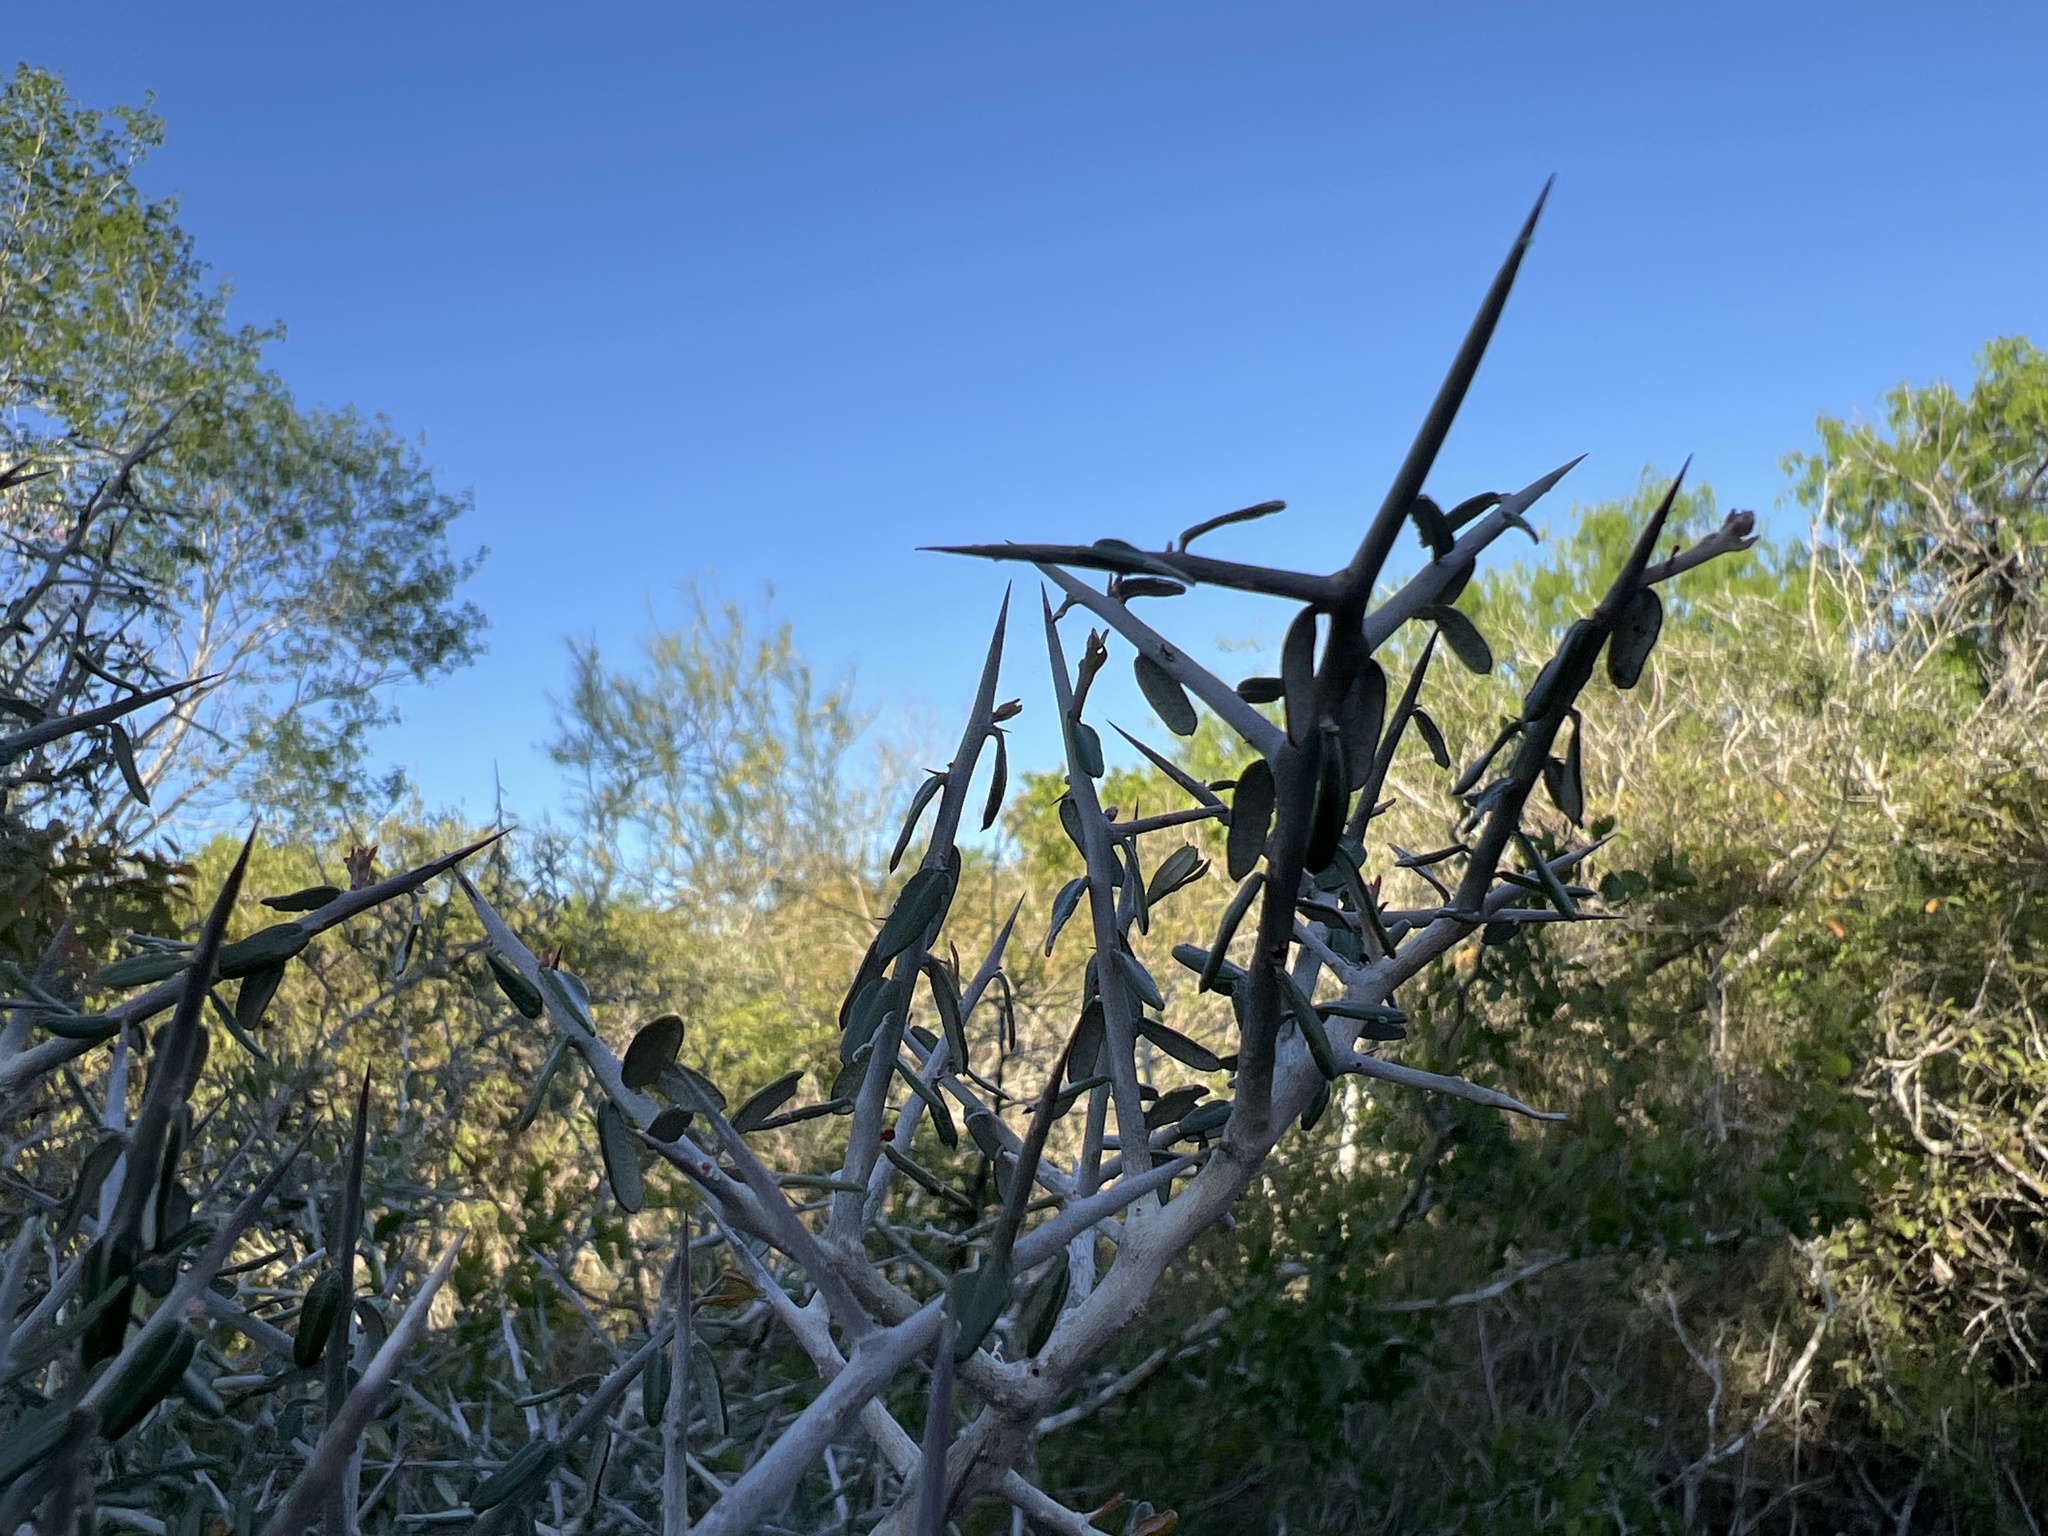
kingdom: Plantae
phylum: Tracheophyta
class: Magnoliopsida
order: Sapindales
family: Simaroubaceae
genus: Castela
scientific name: Castela erecta
